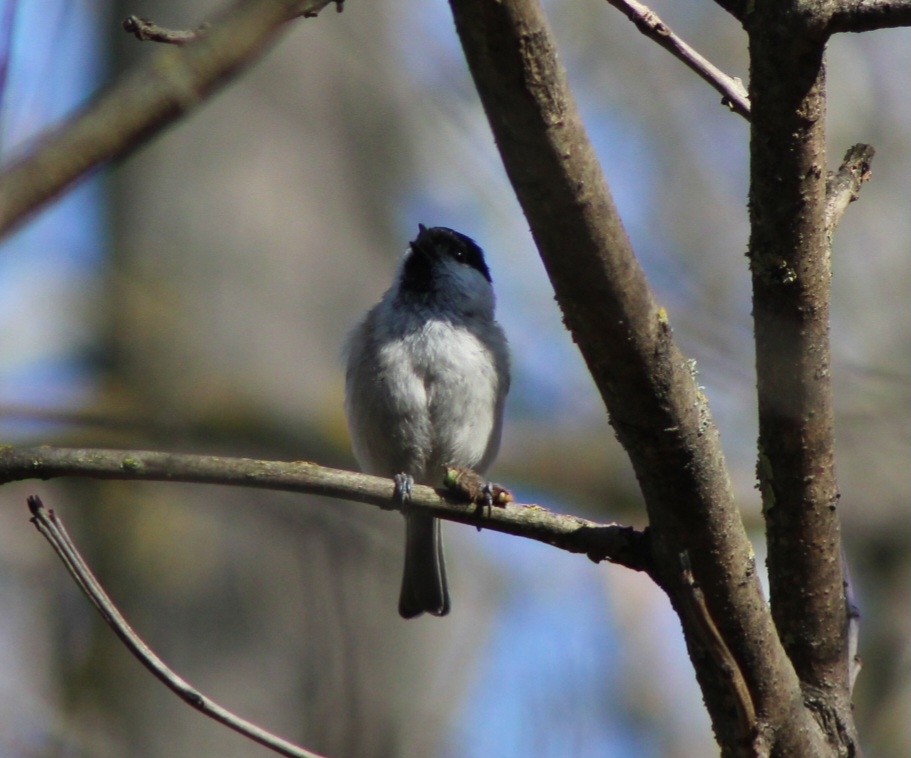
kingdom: Animalia
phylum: Chordata
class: Aves
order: Passeriformes
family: Paridae
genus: Poecile
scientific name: Poecile palustris
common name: Marsh tit
